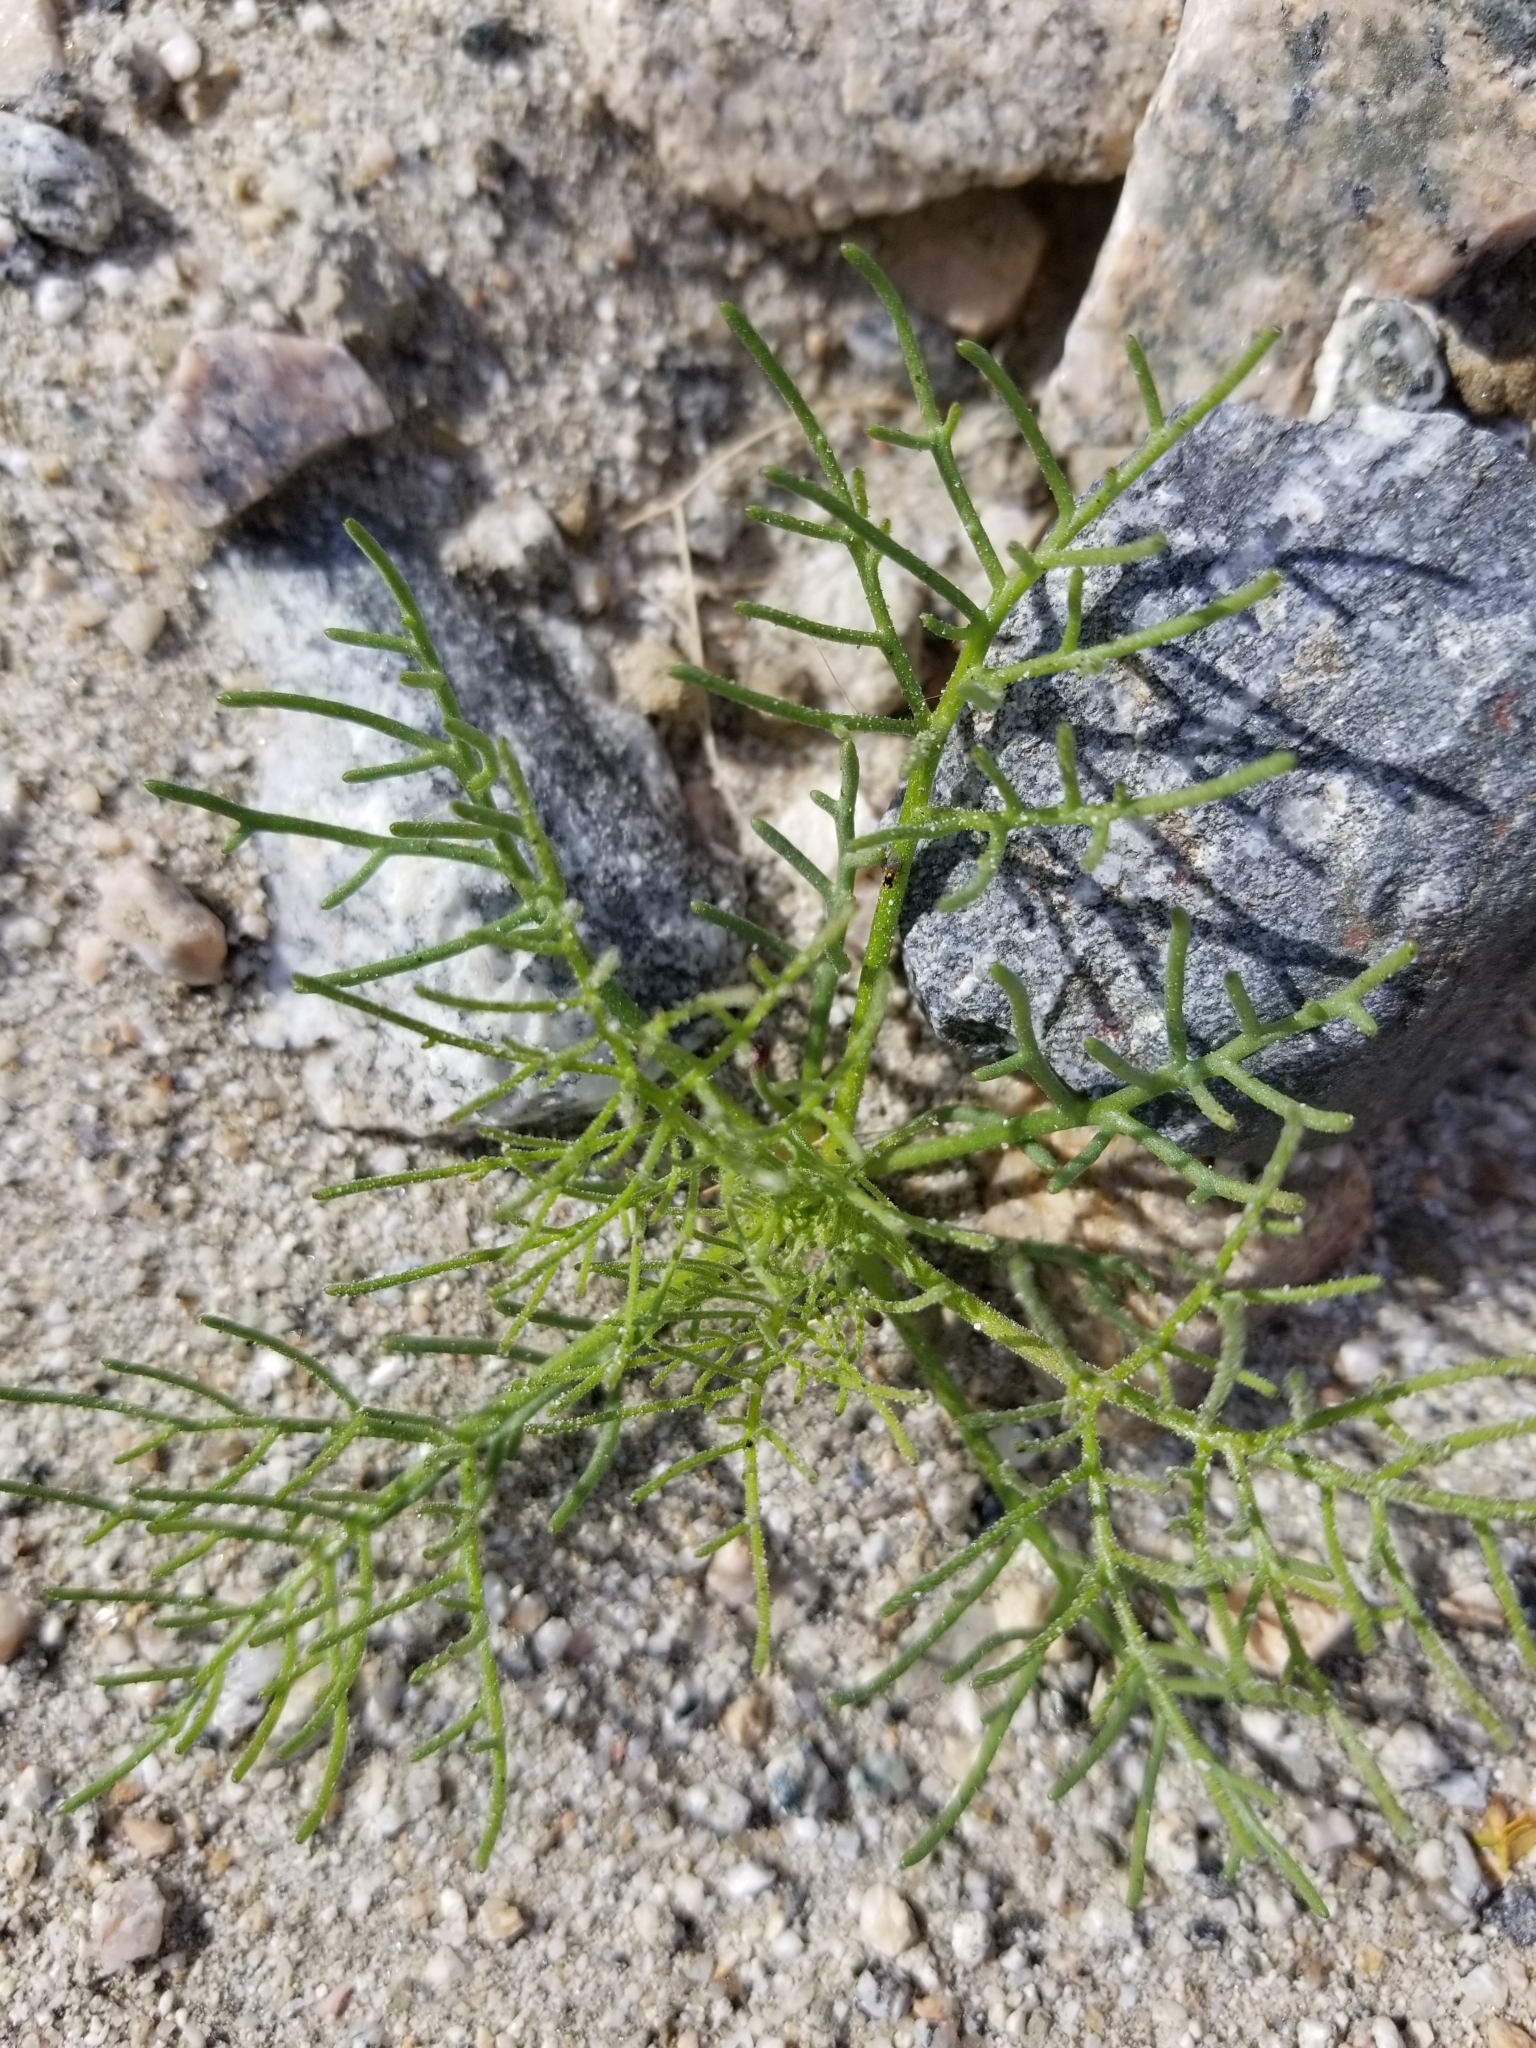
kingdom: Plantae
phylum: Tracheophyta
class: Magnoliopsida
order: Asterales
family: Asteraceae
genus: Chaenactis
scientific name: Chaenactis carphoclinia
